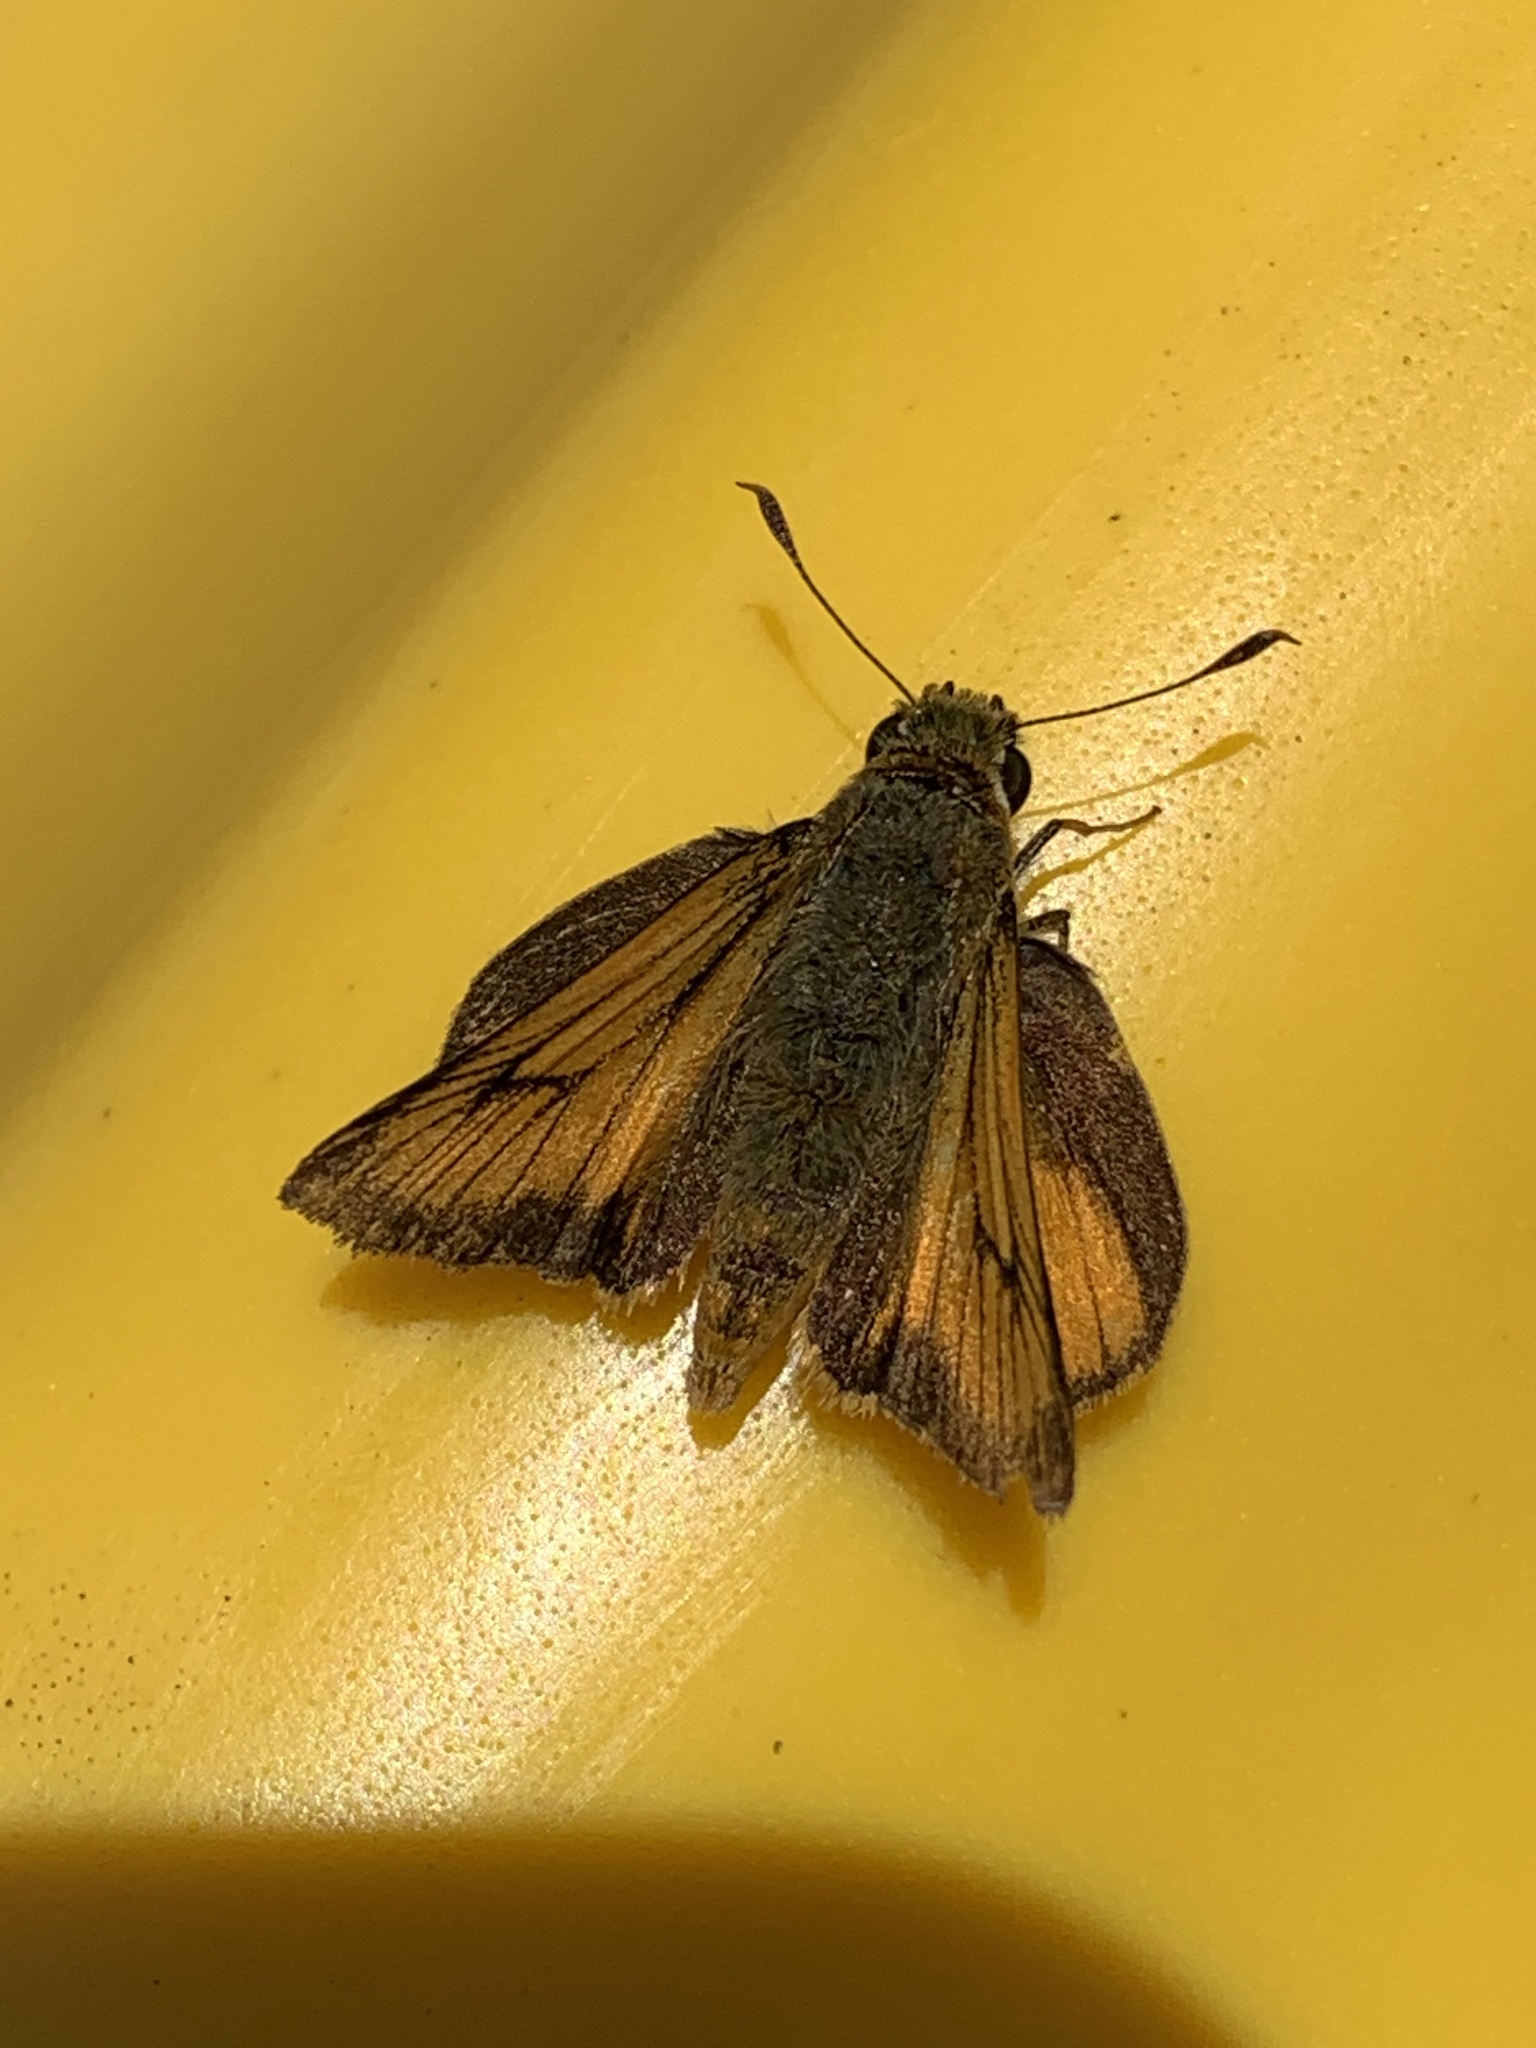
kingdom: Animalia
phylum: Arthropoda
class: Insecta
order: Lepidoptera
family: Hesperiidae
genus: Atrytone
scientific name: Atrytone delaware
